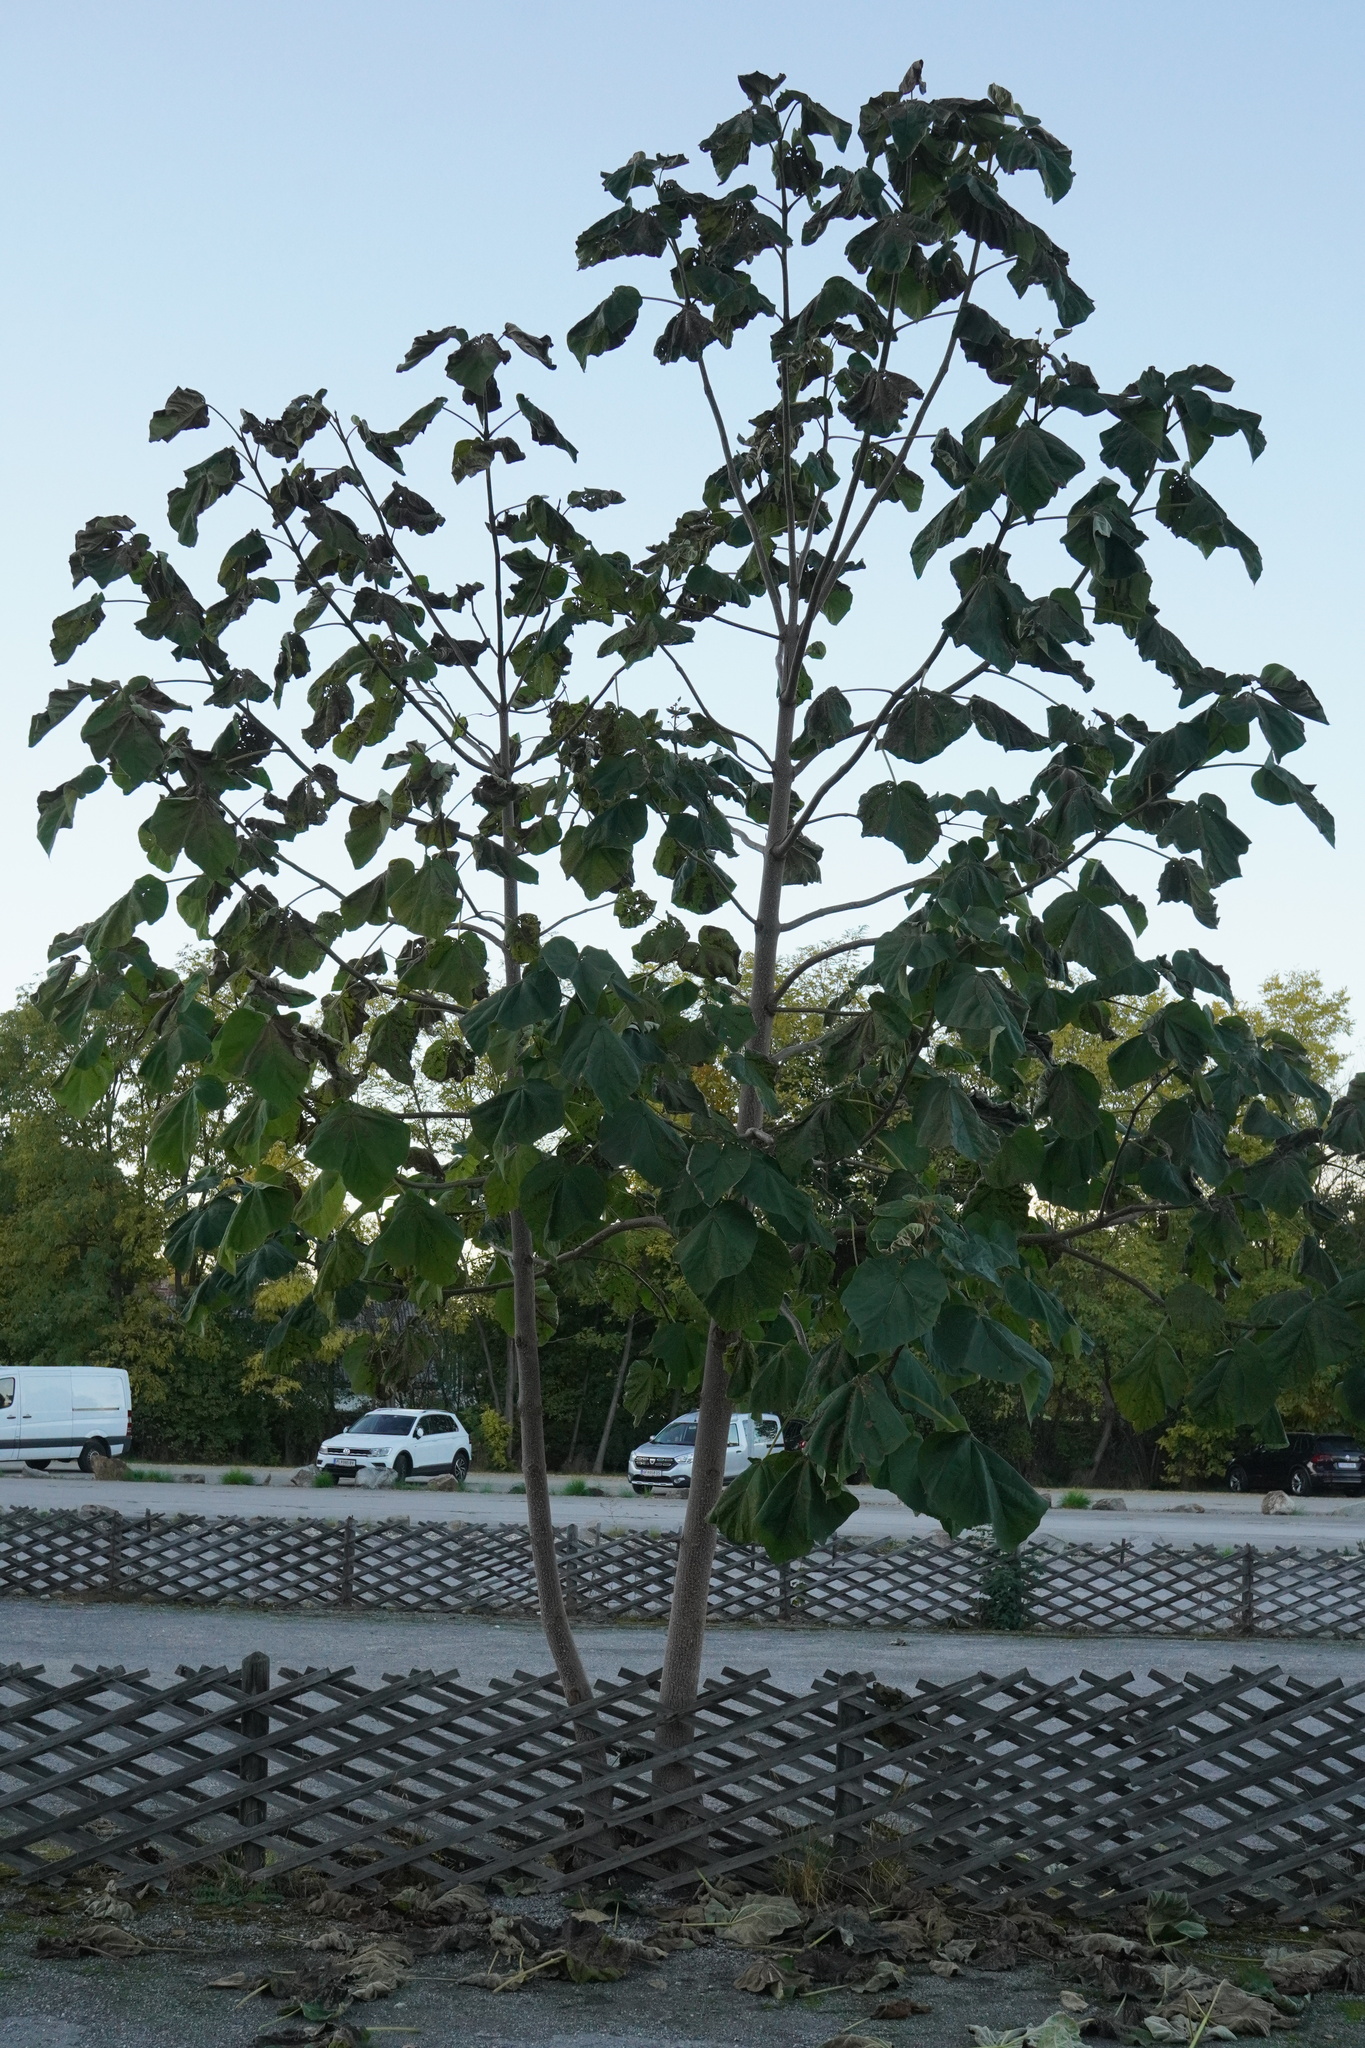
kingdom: Plantae
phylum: Tracheophyta
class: Magnoliopsida
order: Lamiales
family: Paulowniaceae
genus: Paulownia
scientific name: Paulownia tomentosa
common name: Foxglove-tree
